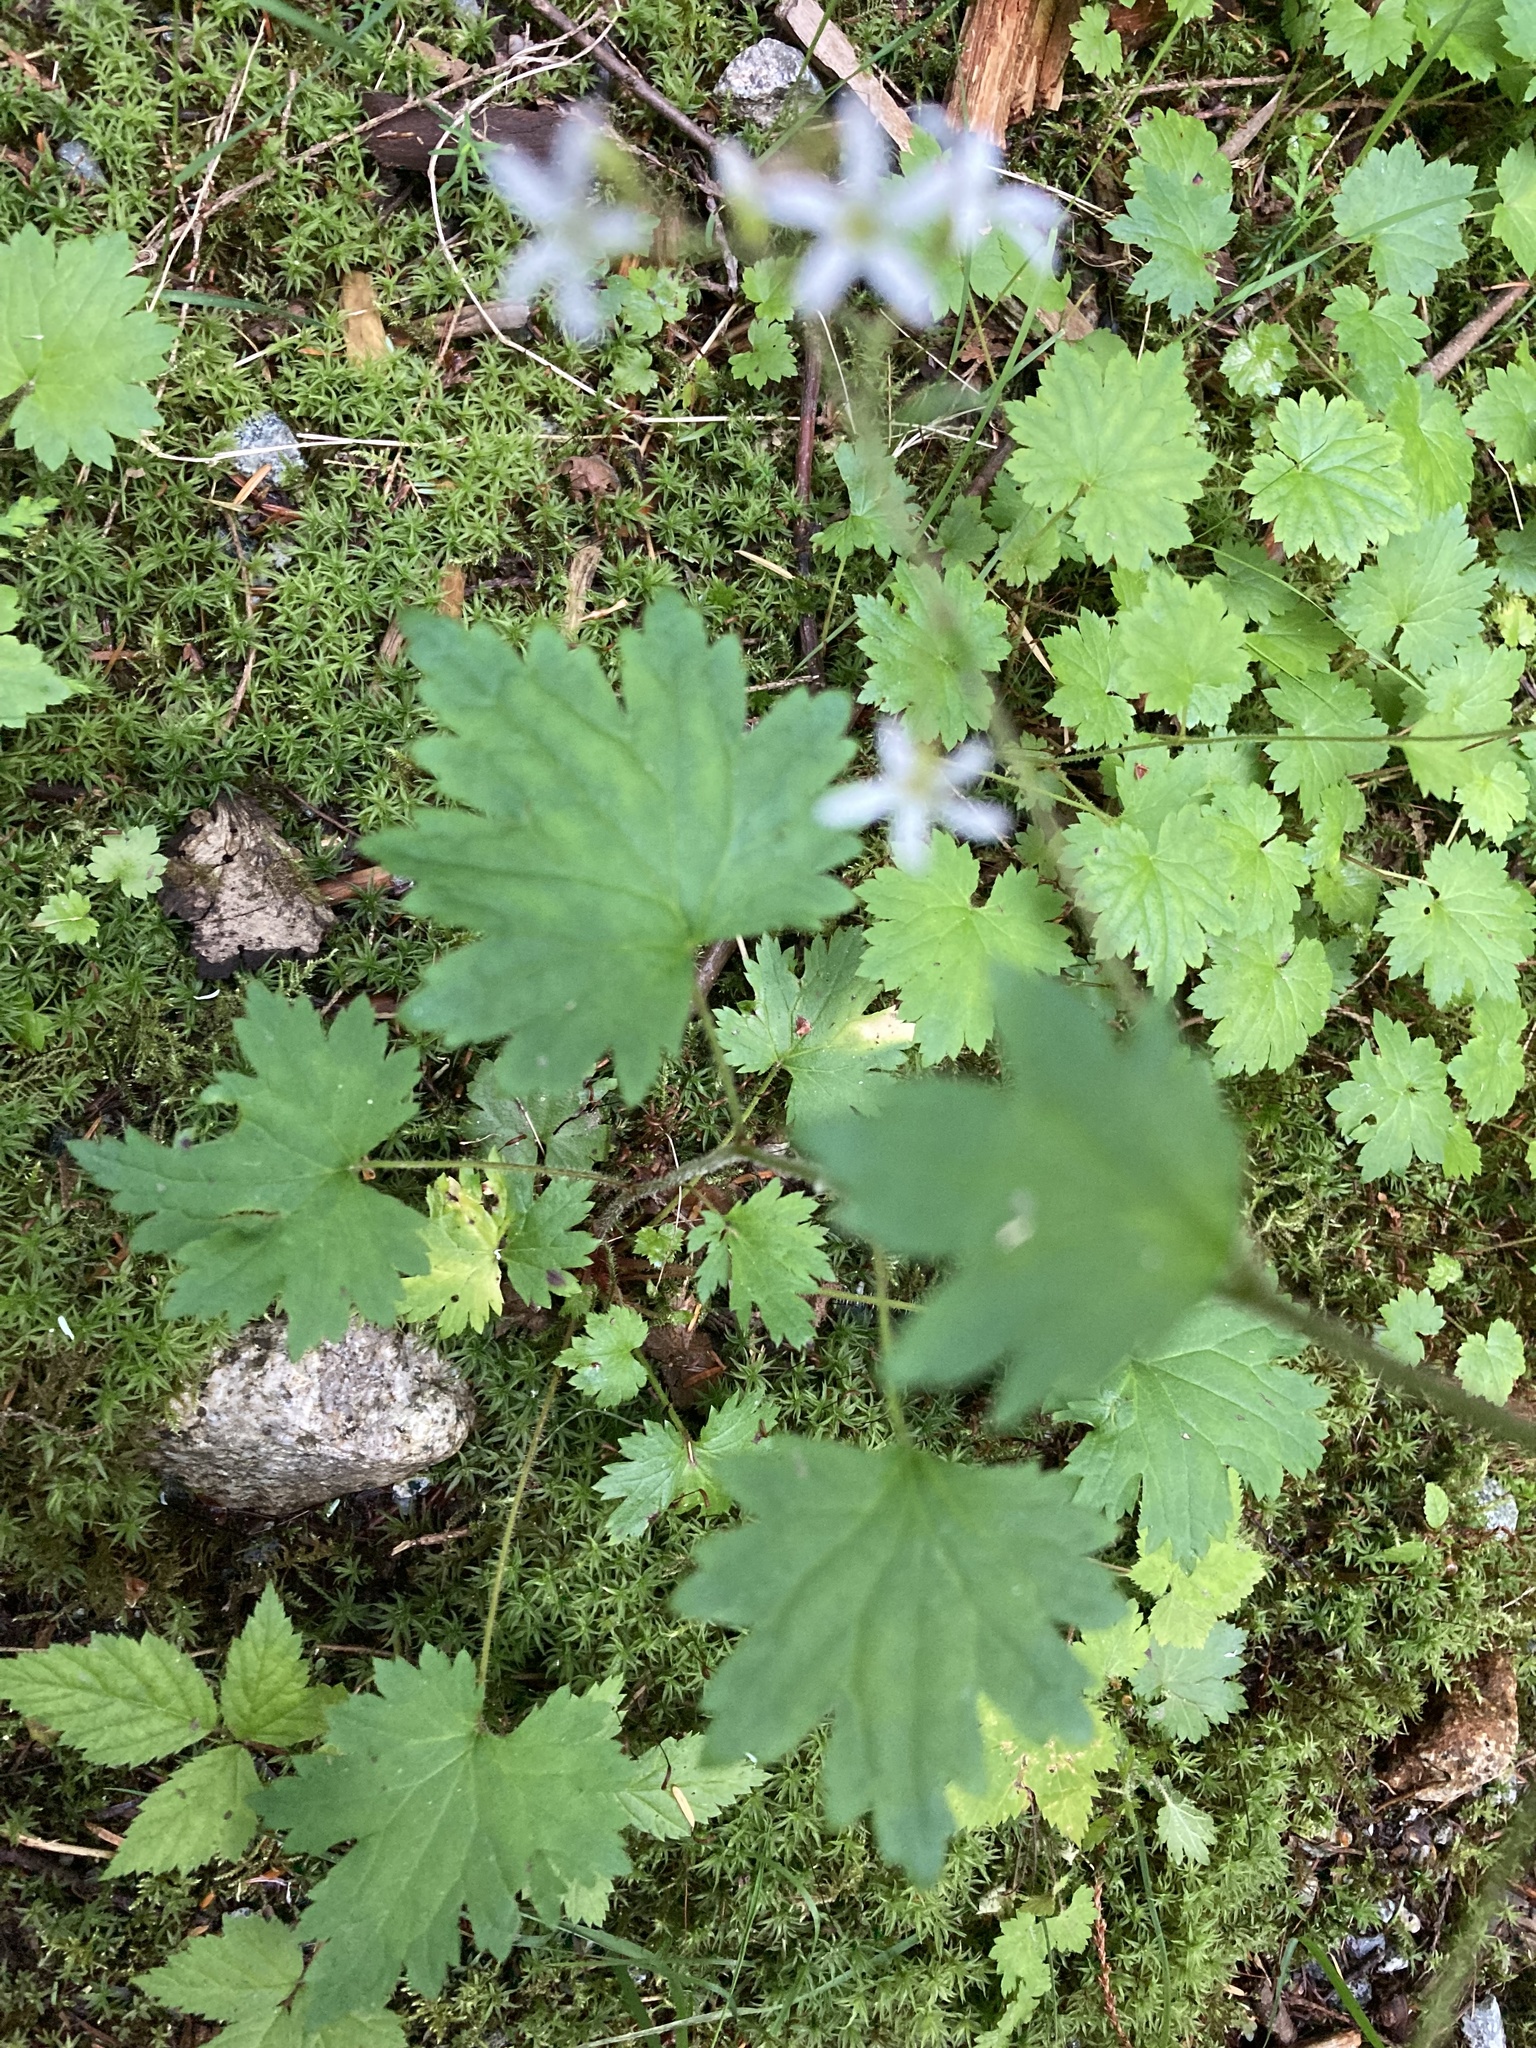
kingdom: Plantae
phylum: Tracheophyta
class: Magnoliopsida
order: Saxifragales
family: Saxifragaceae
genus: Boykinia
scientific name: Boykinia occidentalis
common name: Coast boykinia
